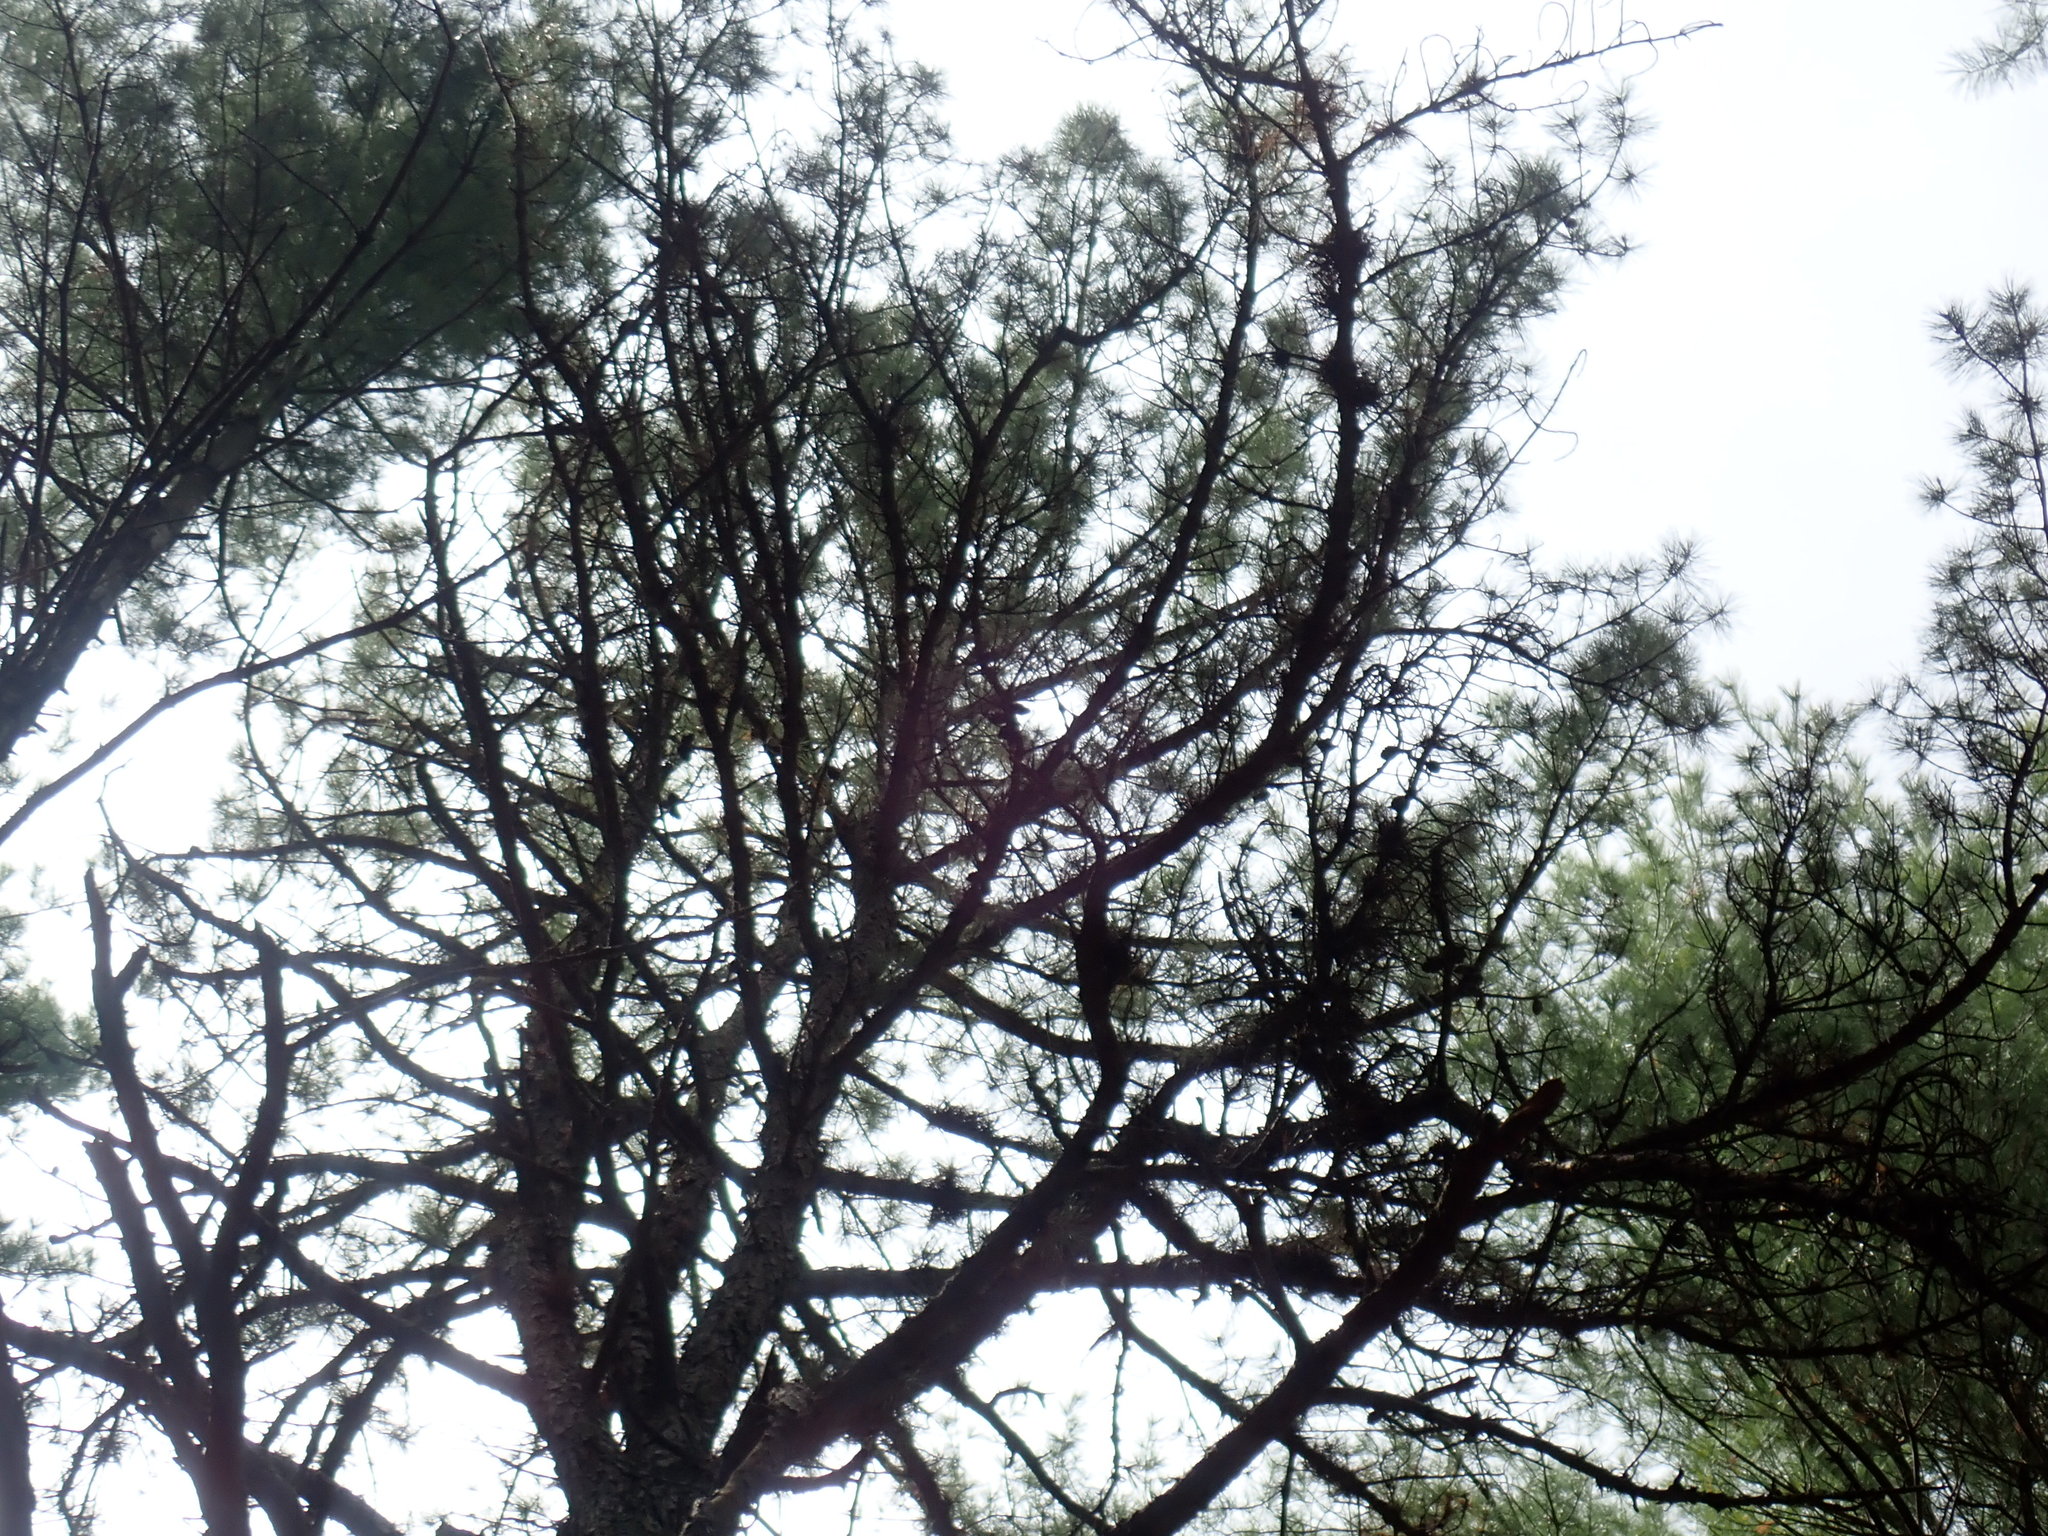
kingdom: Plantae
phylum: Tracheophyta
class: Pinopsida
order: Pinales
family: Pinaceae
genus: Pinus
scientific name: Pinus rigida
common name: Pitch pine
